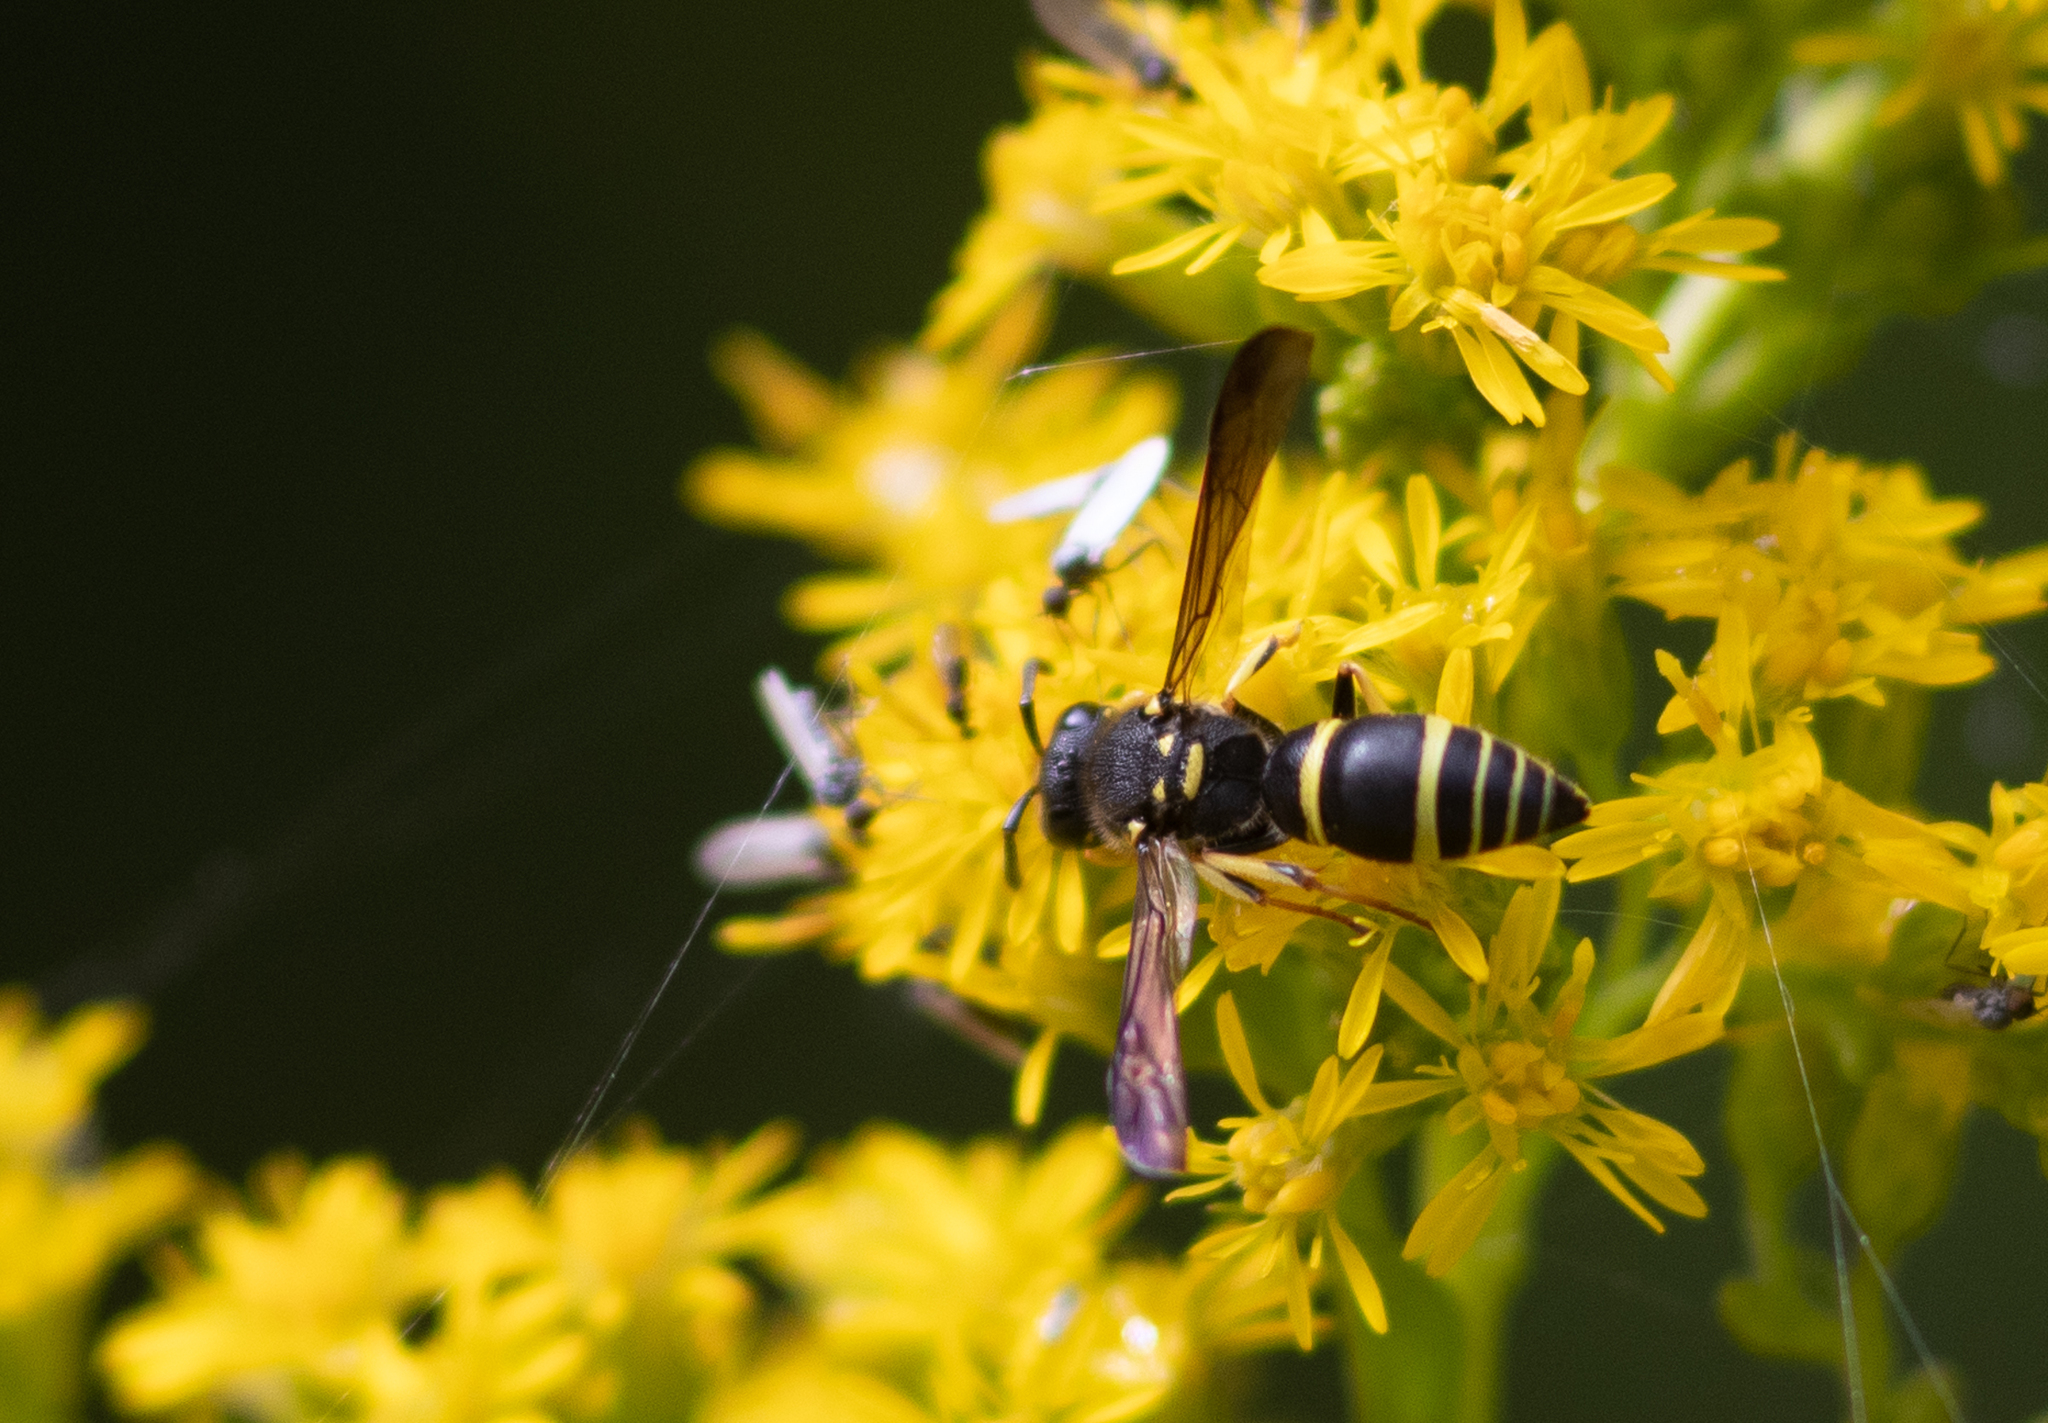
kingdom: Animalia
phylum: Arthropoda
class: Insecta
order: Hymenoptera
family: Vespidae
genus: Ancistrocerus
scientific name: Ancistrocerus adiabatus
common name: Bramble mason wasp
